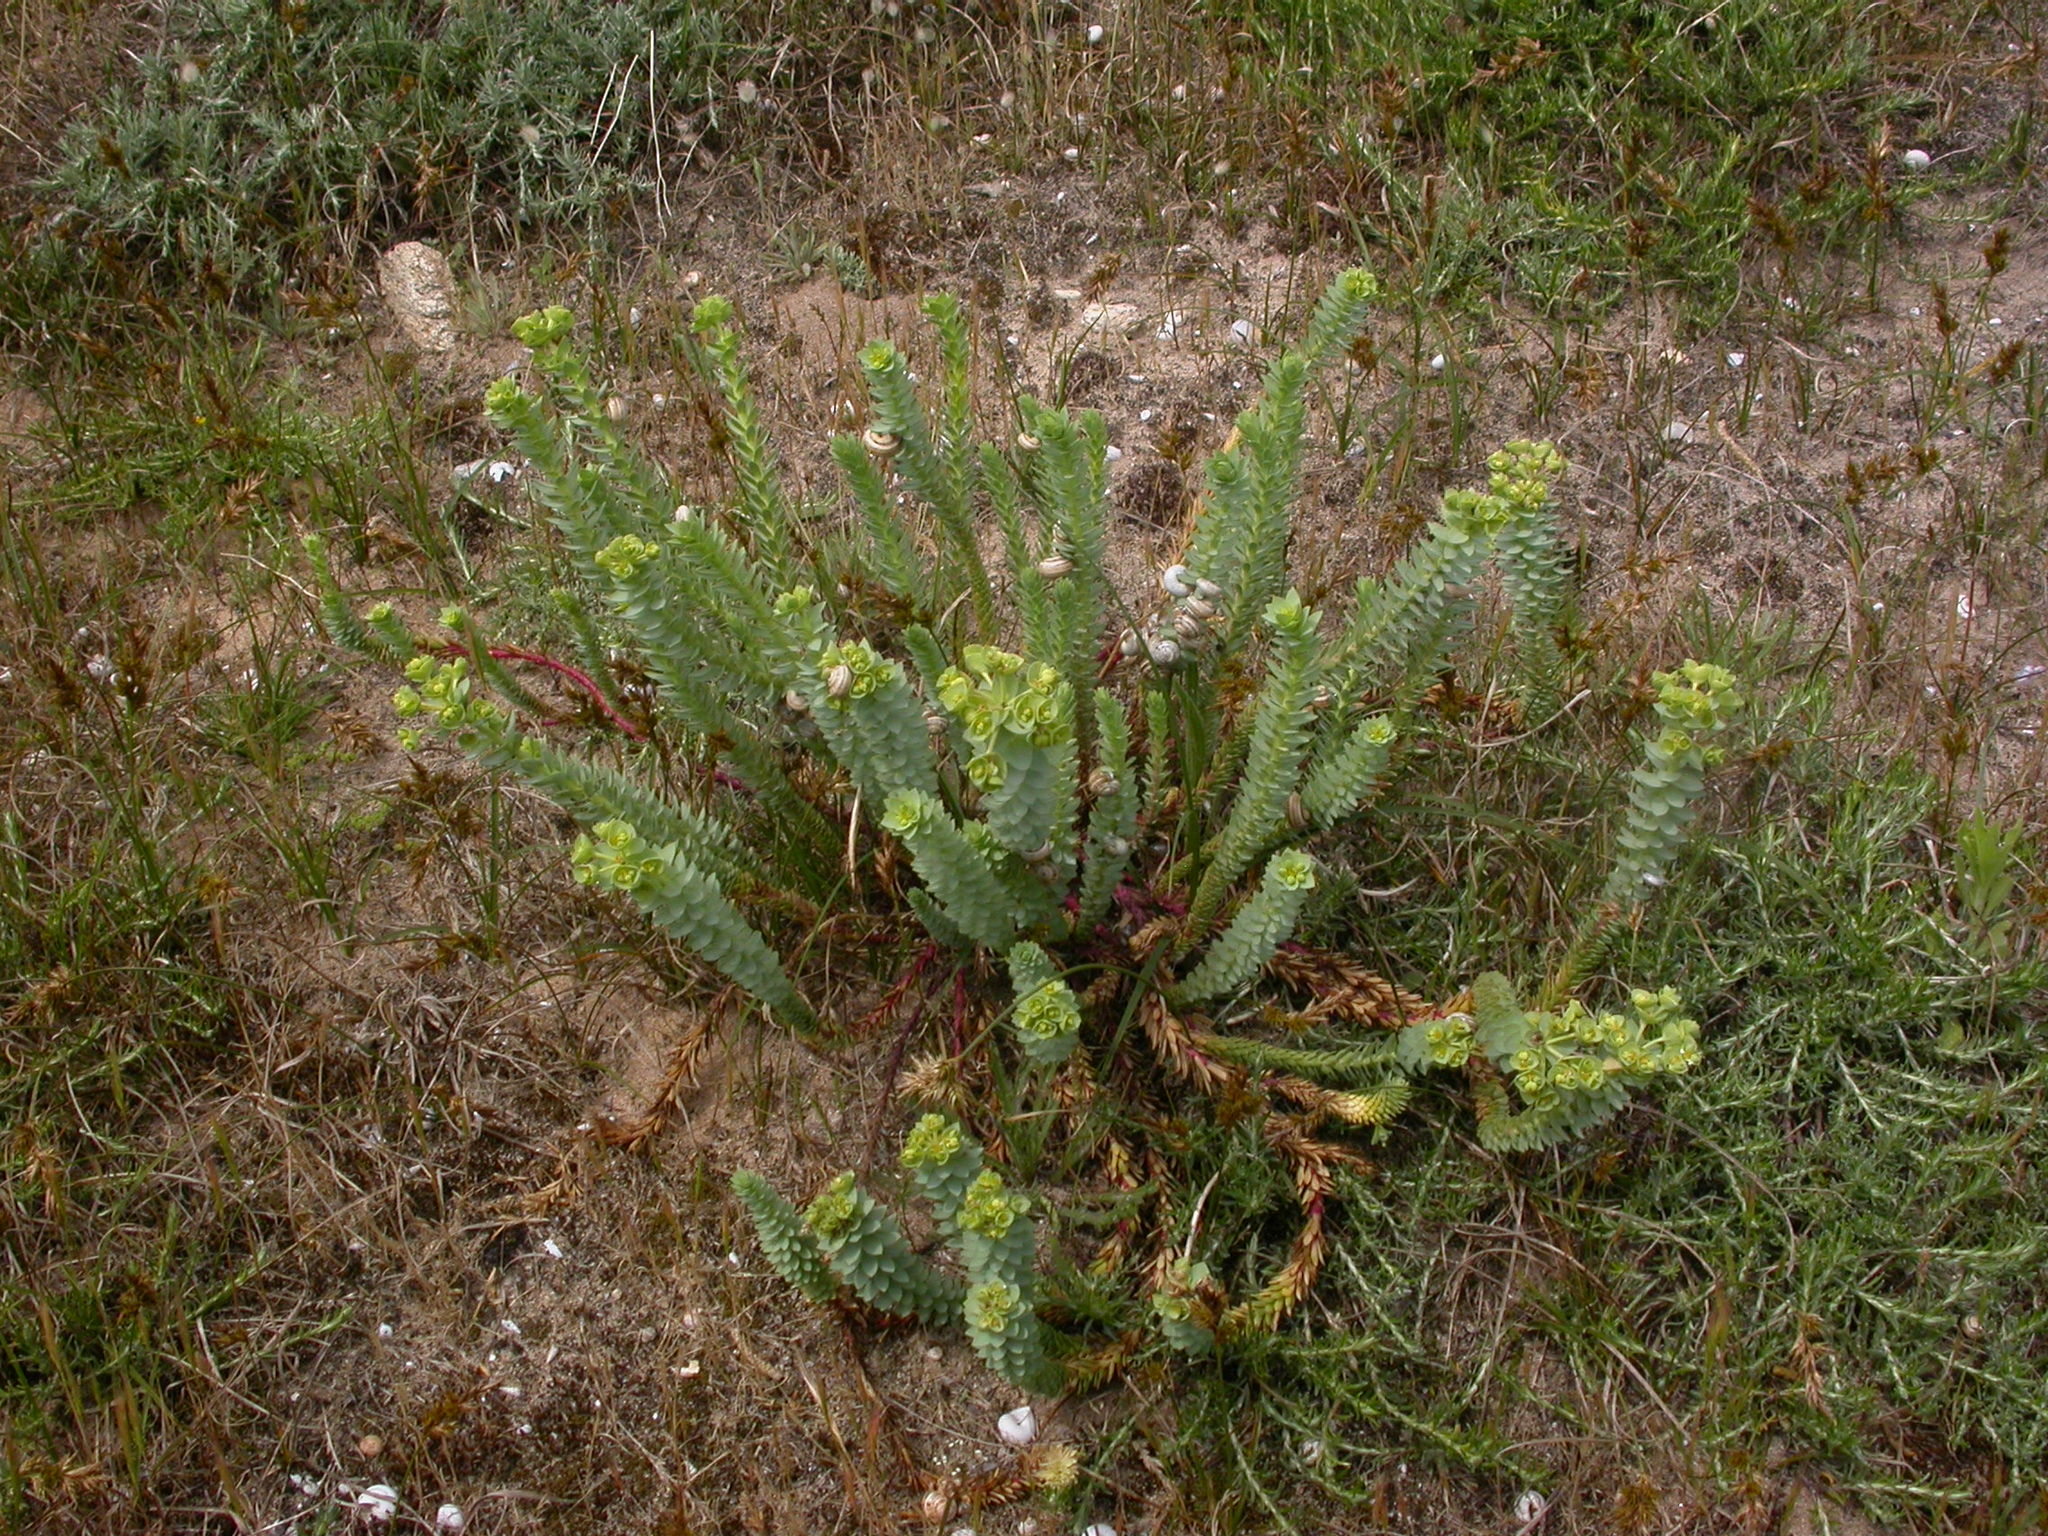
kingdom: Plantae
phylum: Tracheophyta
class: Magnoliopsida
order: Malpighiales
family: Euphorbiaceae
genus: Euphorbia
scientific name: Euphorbia paralias
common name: Sea spurge
